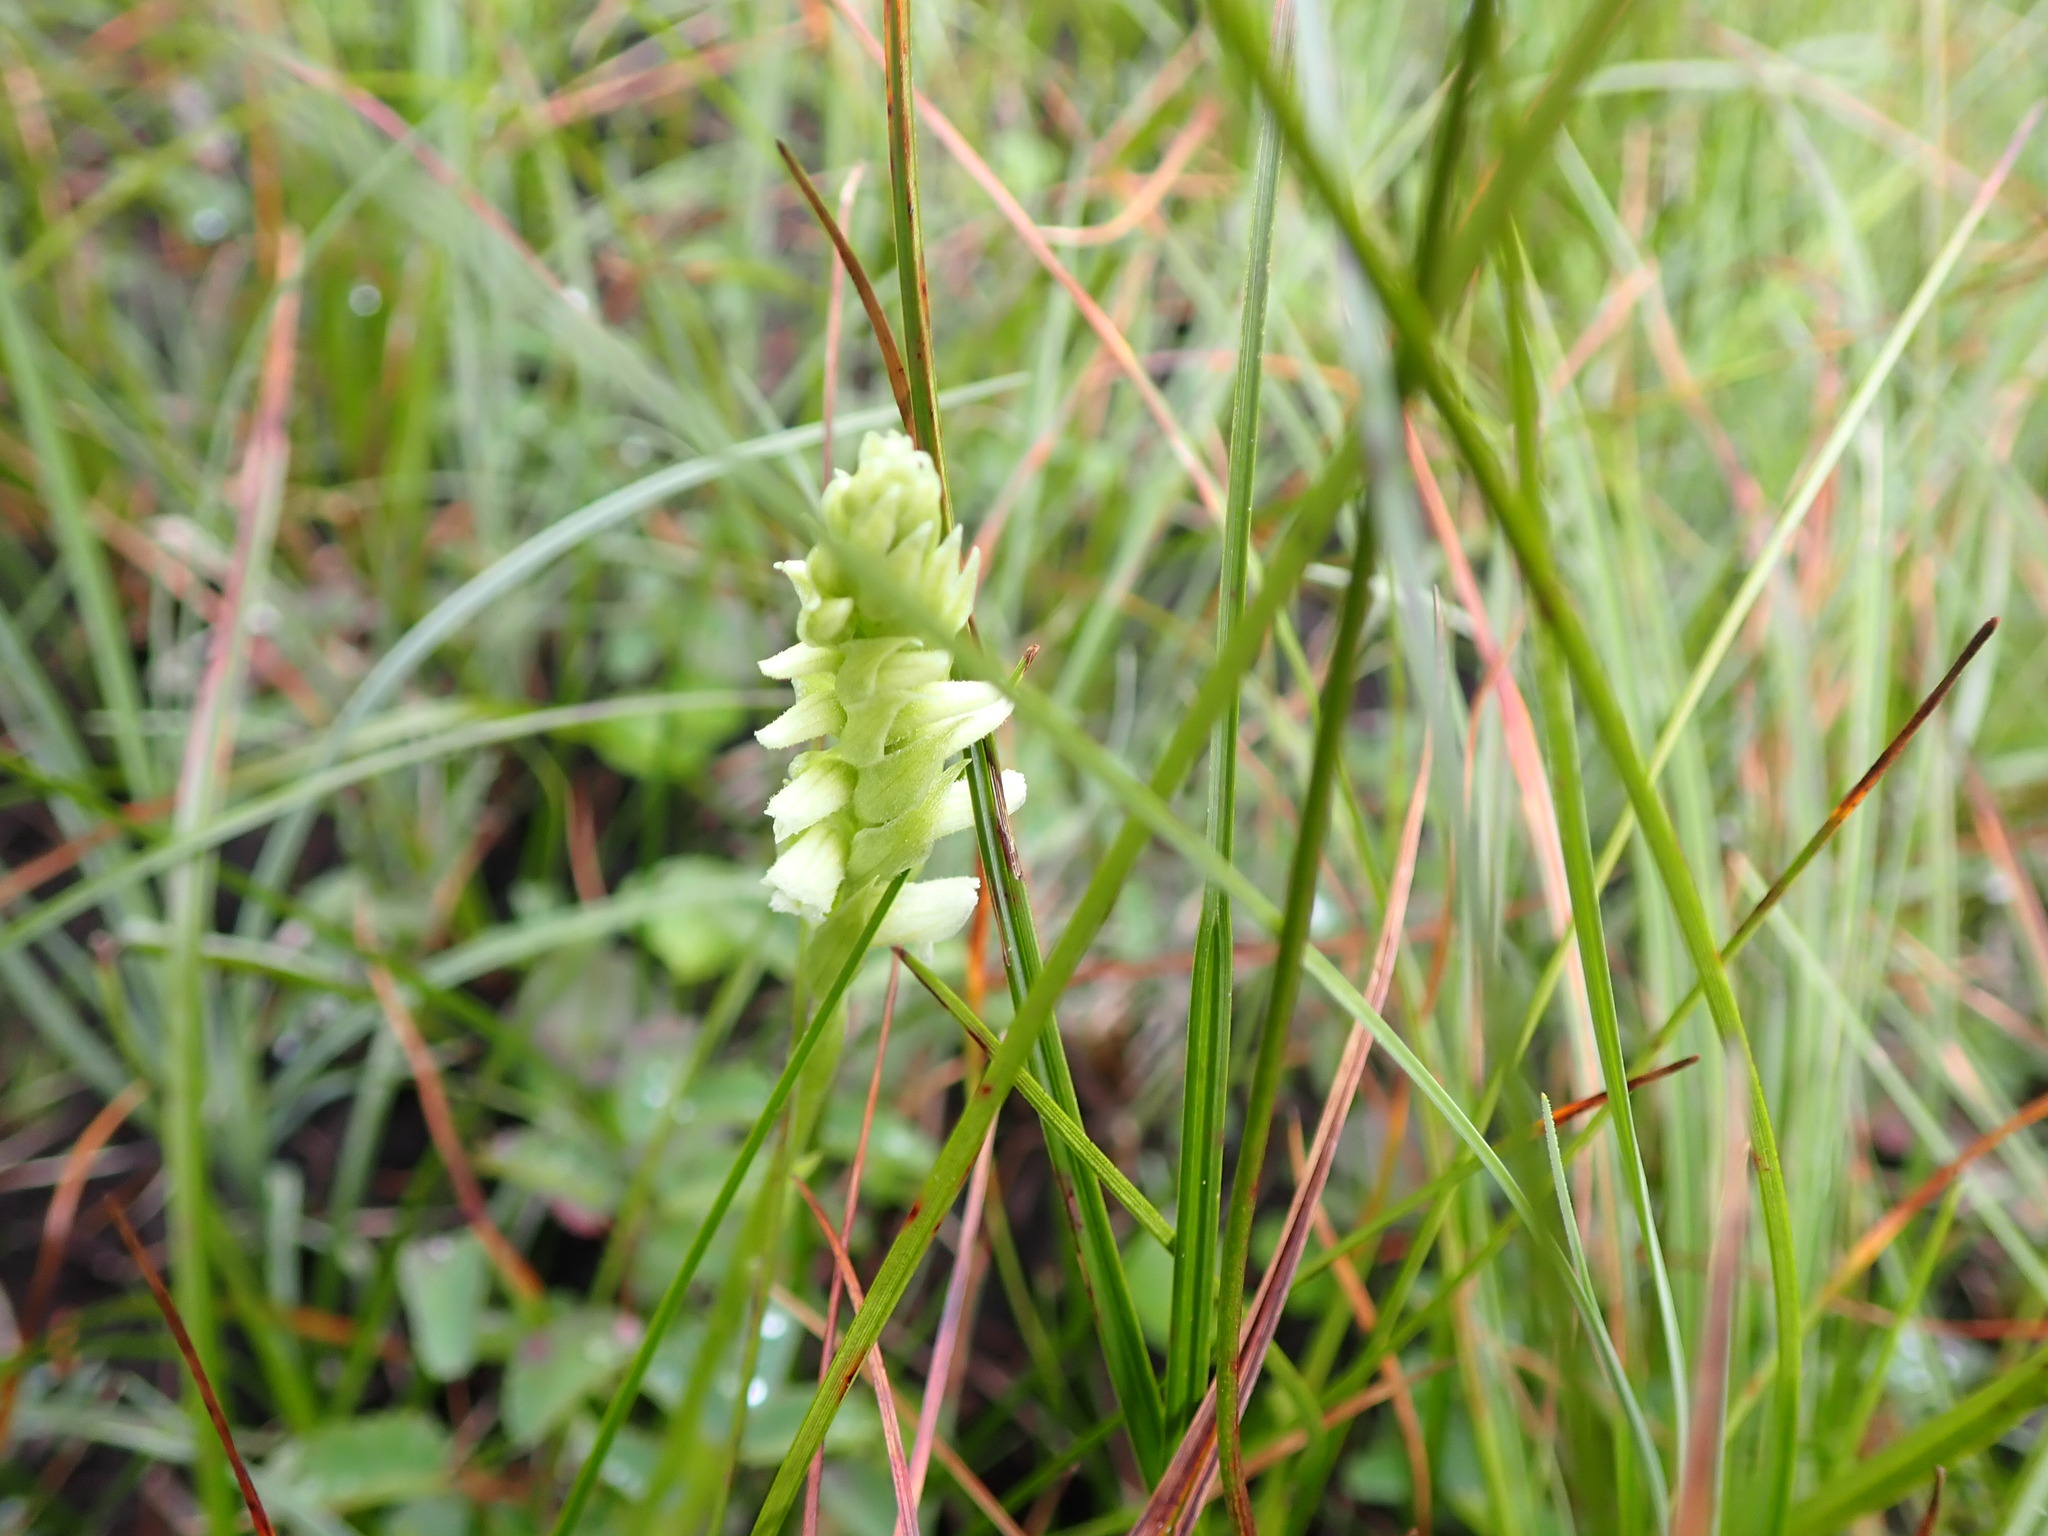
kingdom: Plantae
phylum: Tracheophyta
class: Liliopsida
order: Asparagales
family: Orchidaceae
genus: Spiranthes
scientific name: Spiranthes romanzoffiana
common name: Irish lady's-tresses
